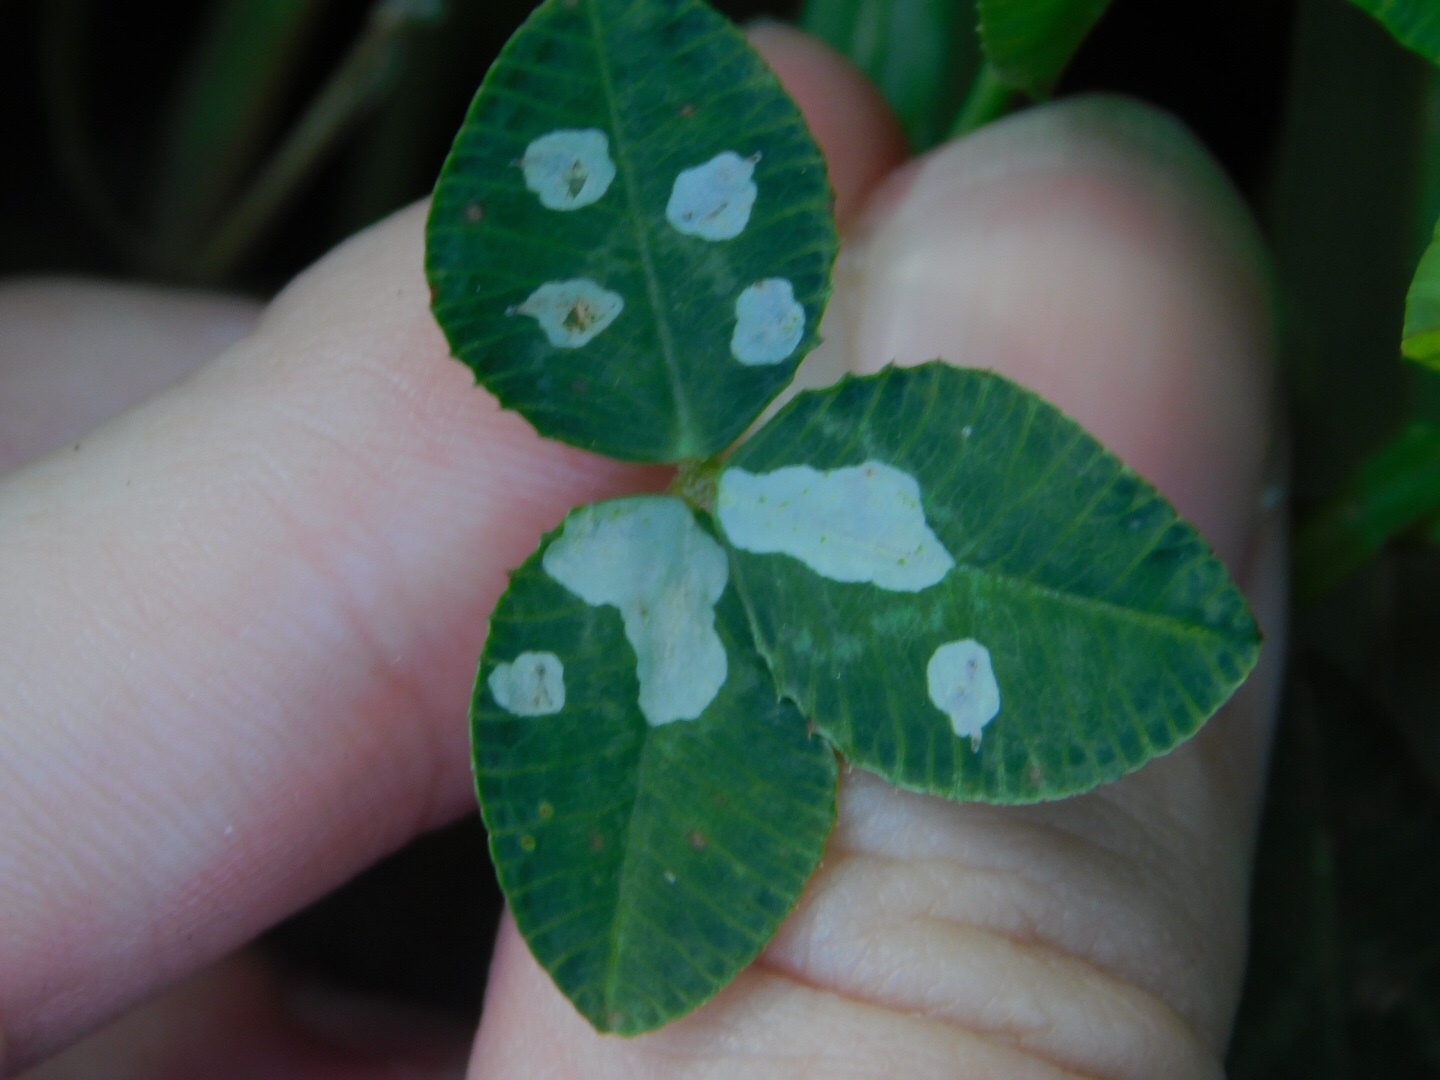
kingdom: Animalia
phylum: Arthropoda
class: Insecta
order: Lepidoptera
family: Gracillariidae
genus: Porphyrosela
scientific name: Porphyrosela minuta
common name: Leaf miner moth
